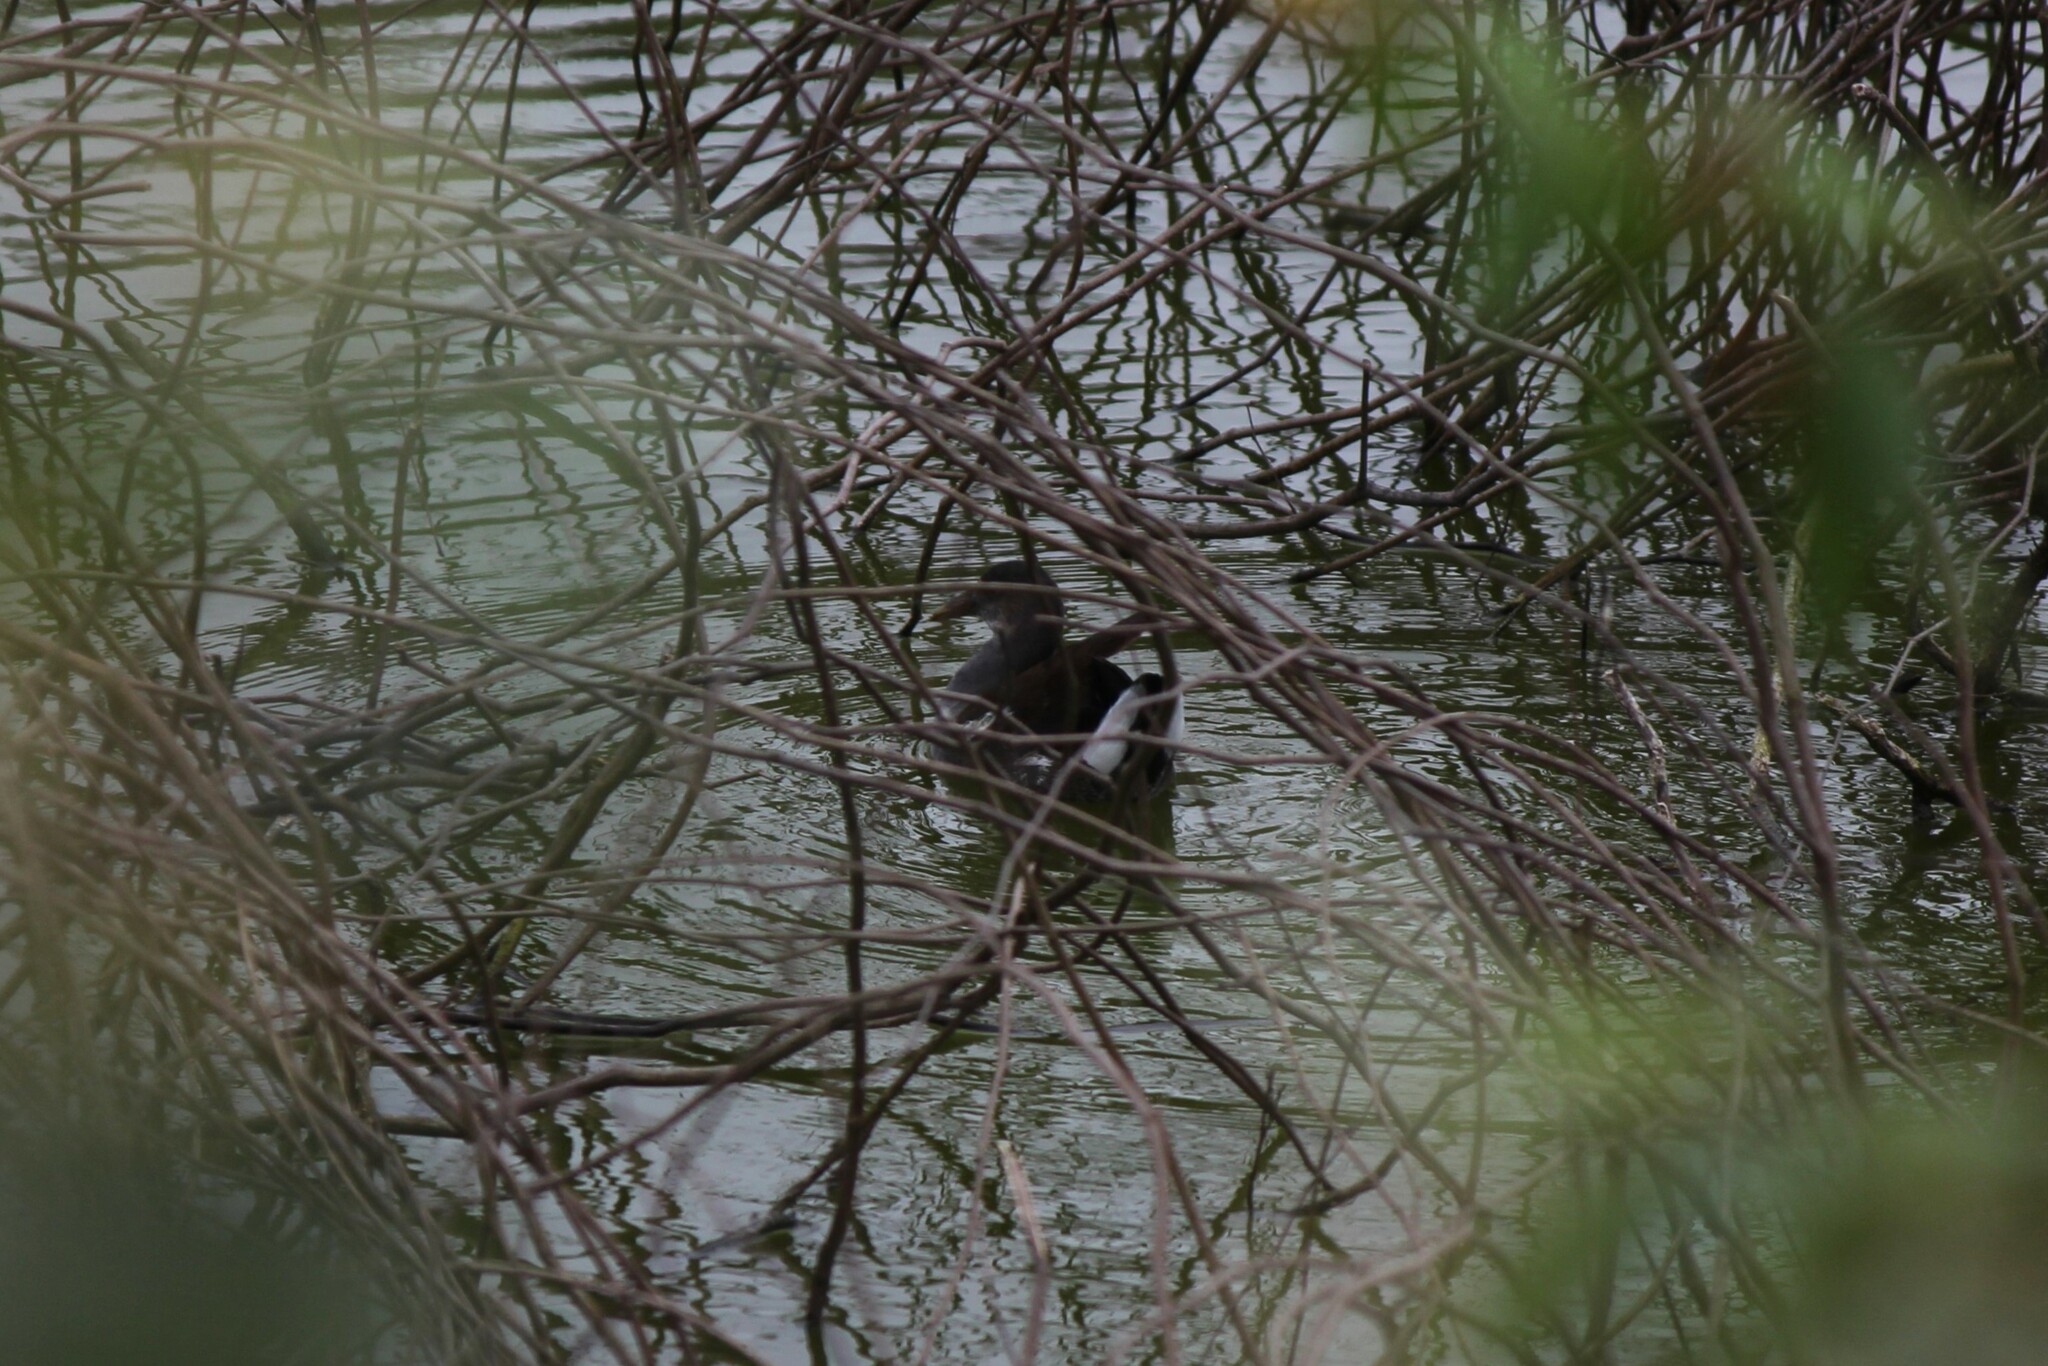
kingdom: Animalia
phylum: Chordata
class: Aves
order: Gruiformes
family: Rallidae
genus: Gallinula
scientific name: Gallinula chloropus
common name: Common moorhen
